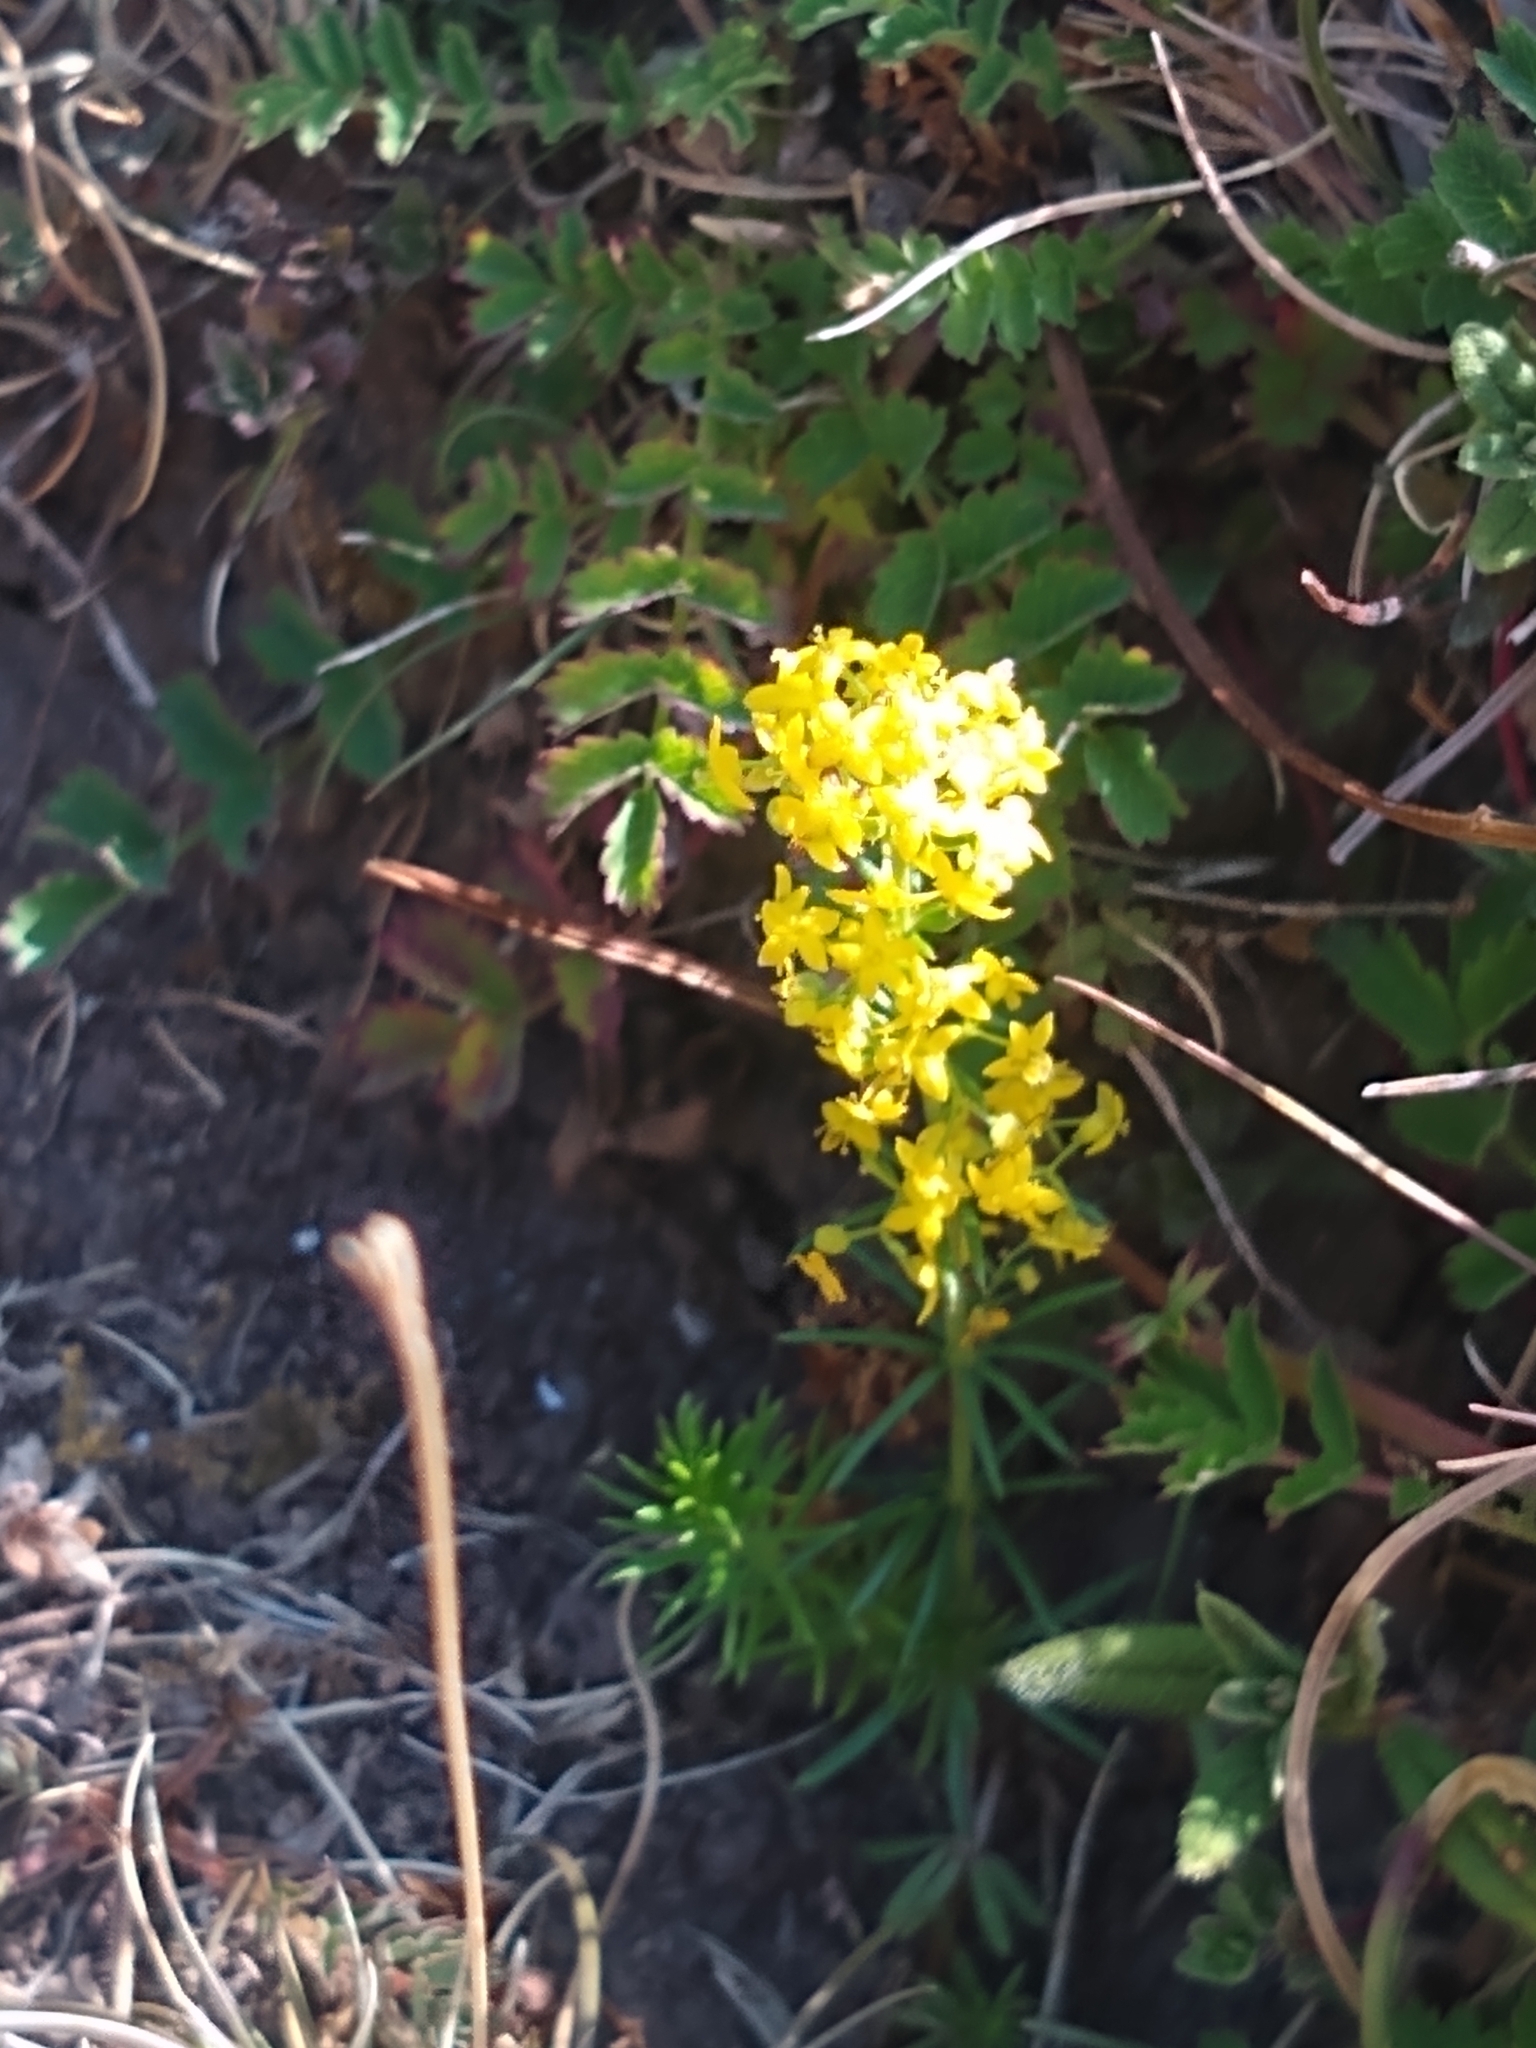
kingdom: Plantae
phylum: Tracheophyta
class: Magnoliopsida
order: Gentianales
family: Rubiaceae
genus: Galium
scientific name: Galium verum
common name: Lady's bedstraw
